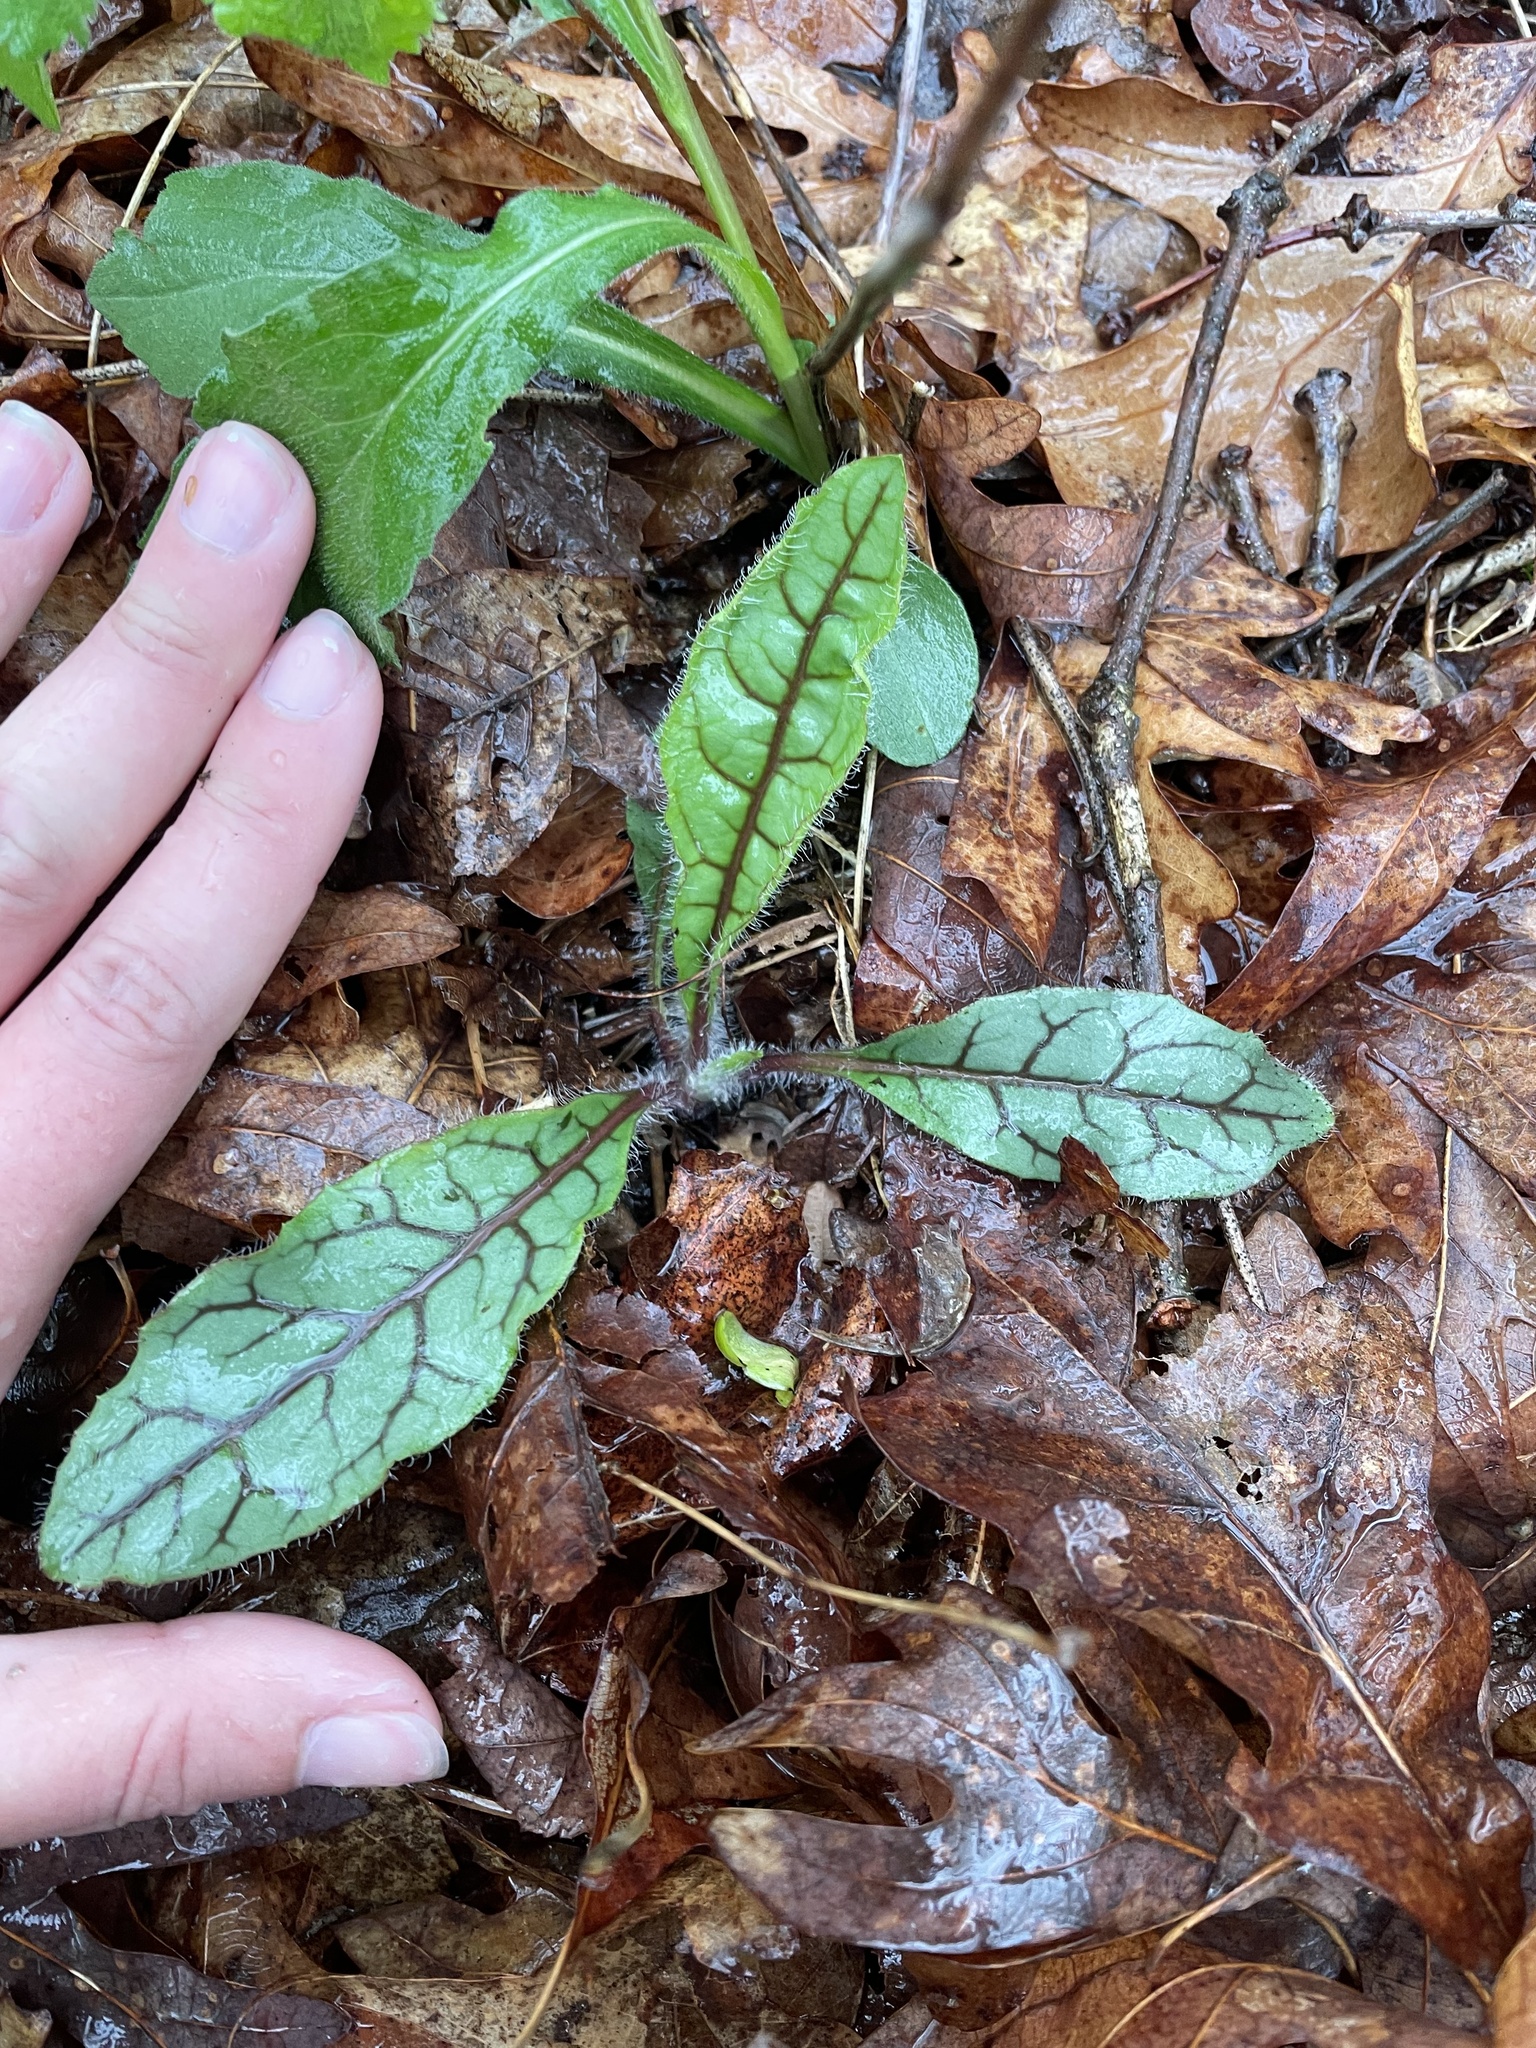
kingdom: Plantae
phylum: Tracheophyta
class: Magnoliopsida
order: Asterales
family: Asteraceae
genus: Hieracium
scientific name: Hieracium venosum
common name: Rattlesnake hawkweed
